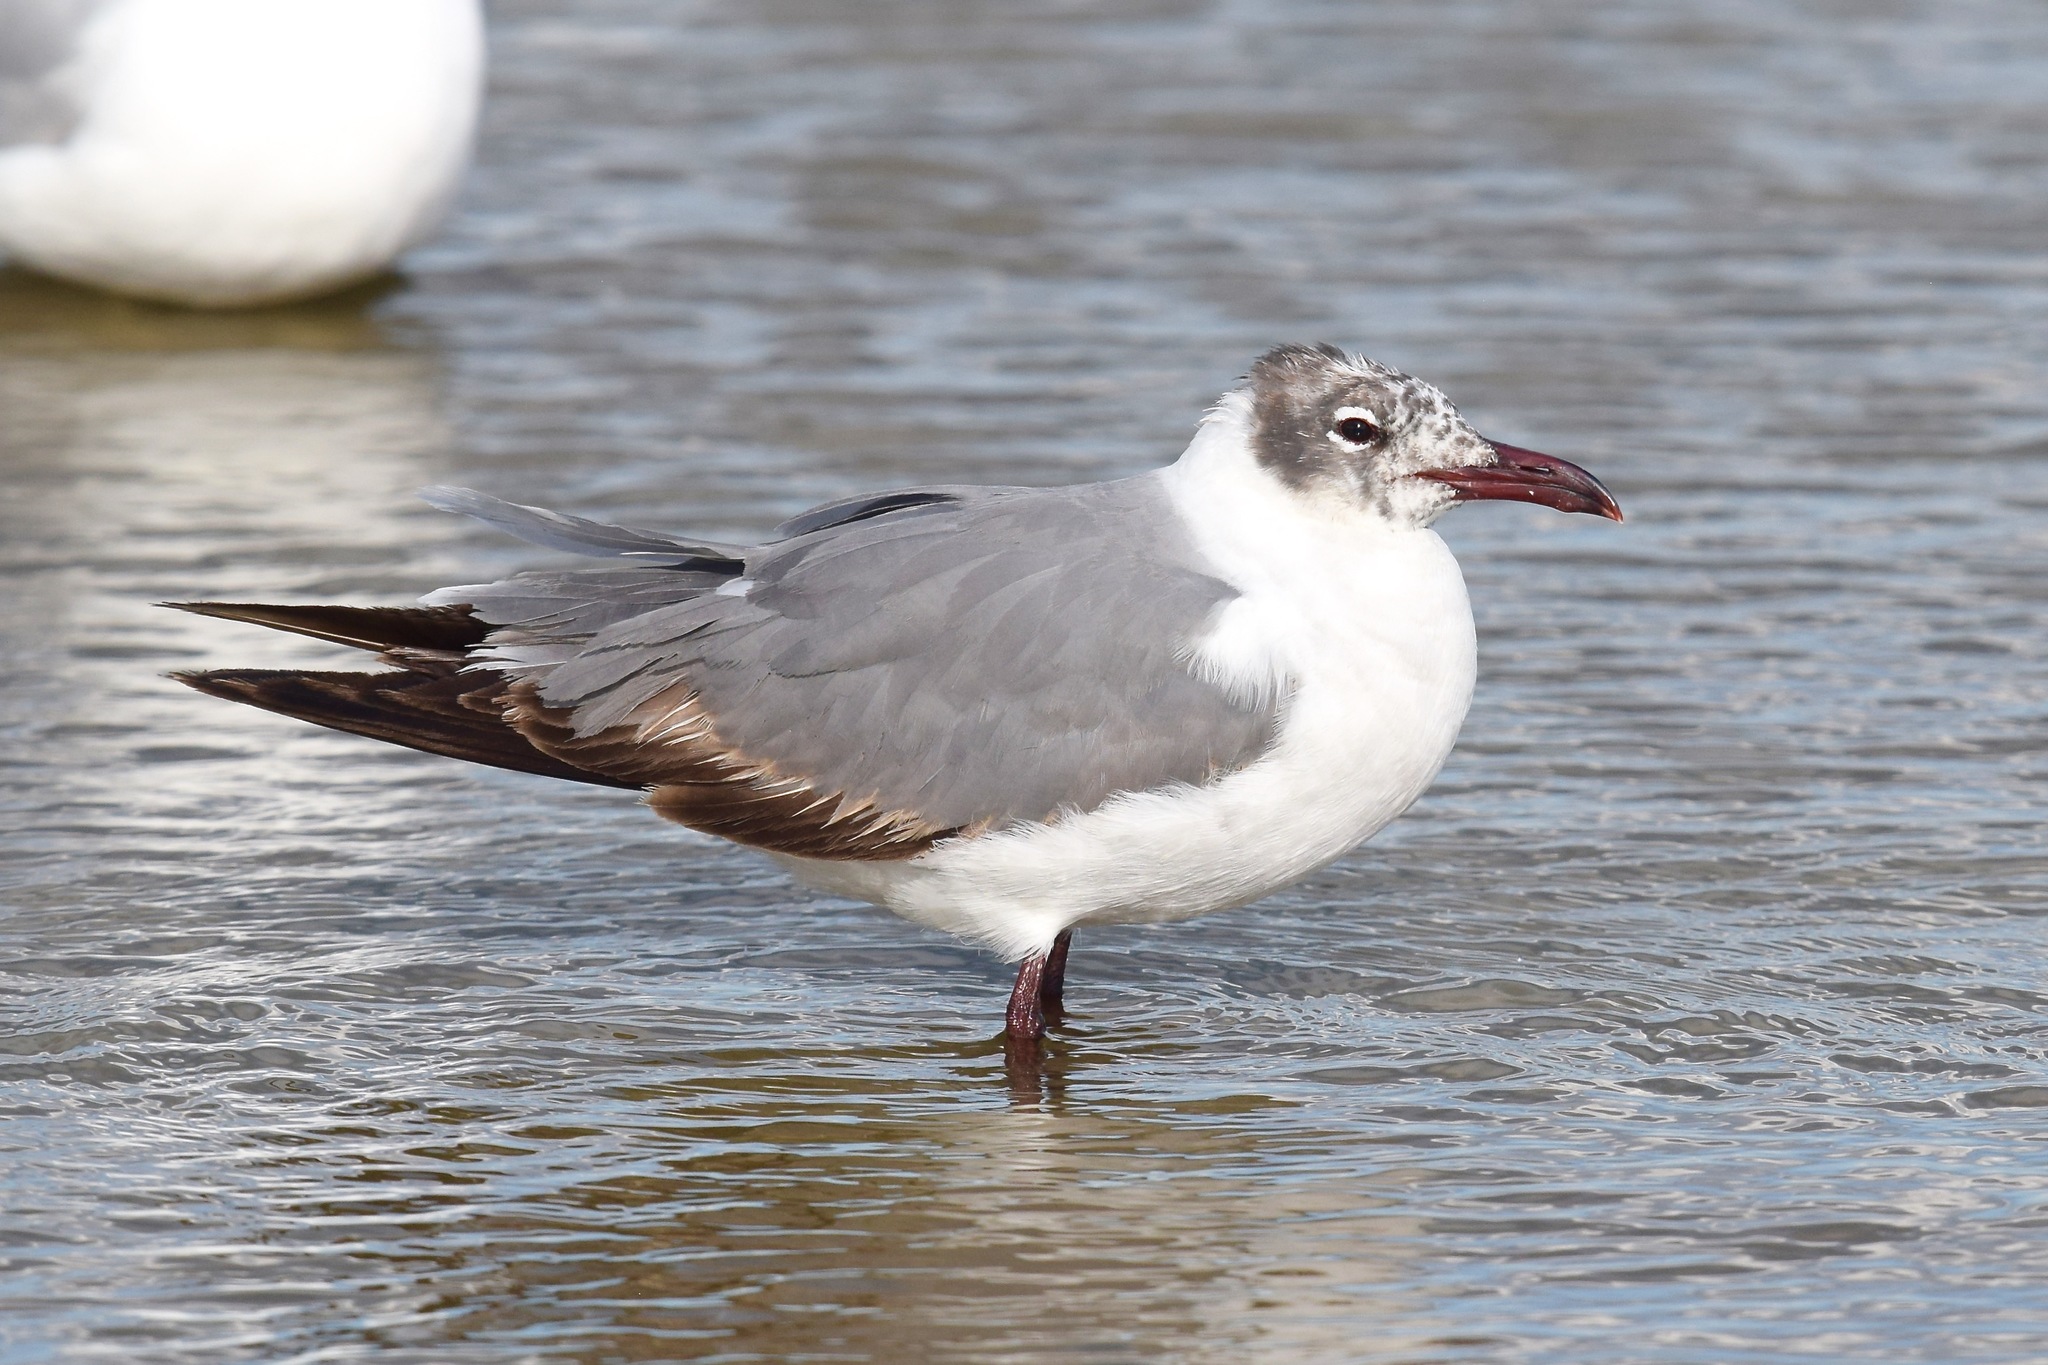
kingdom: Animalia
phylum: Chordata
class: Aves
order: Charadriiformes
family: Laridae
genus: Leucophaeus
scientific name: Leucophaeus atricilla
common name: Laughing gull
